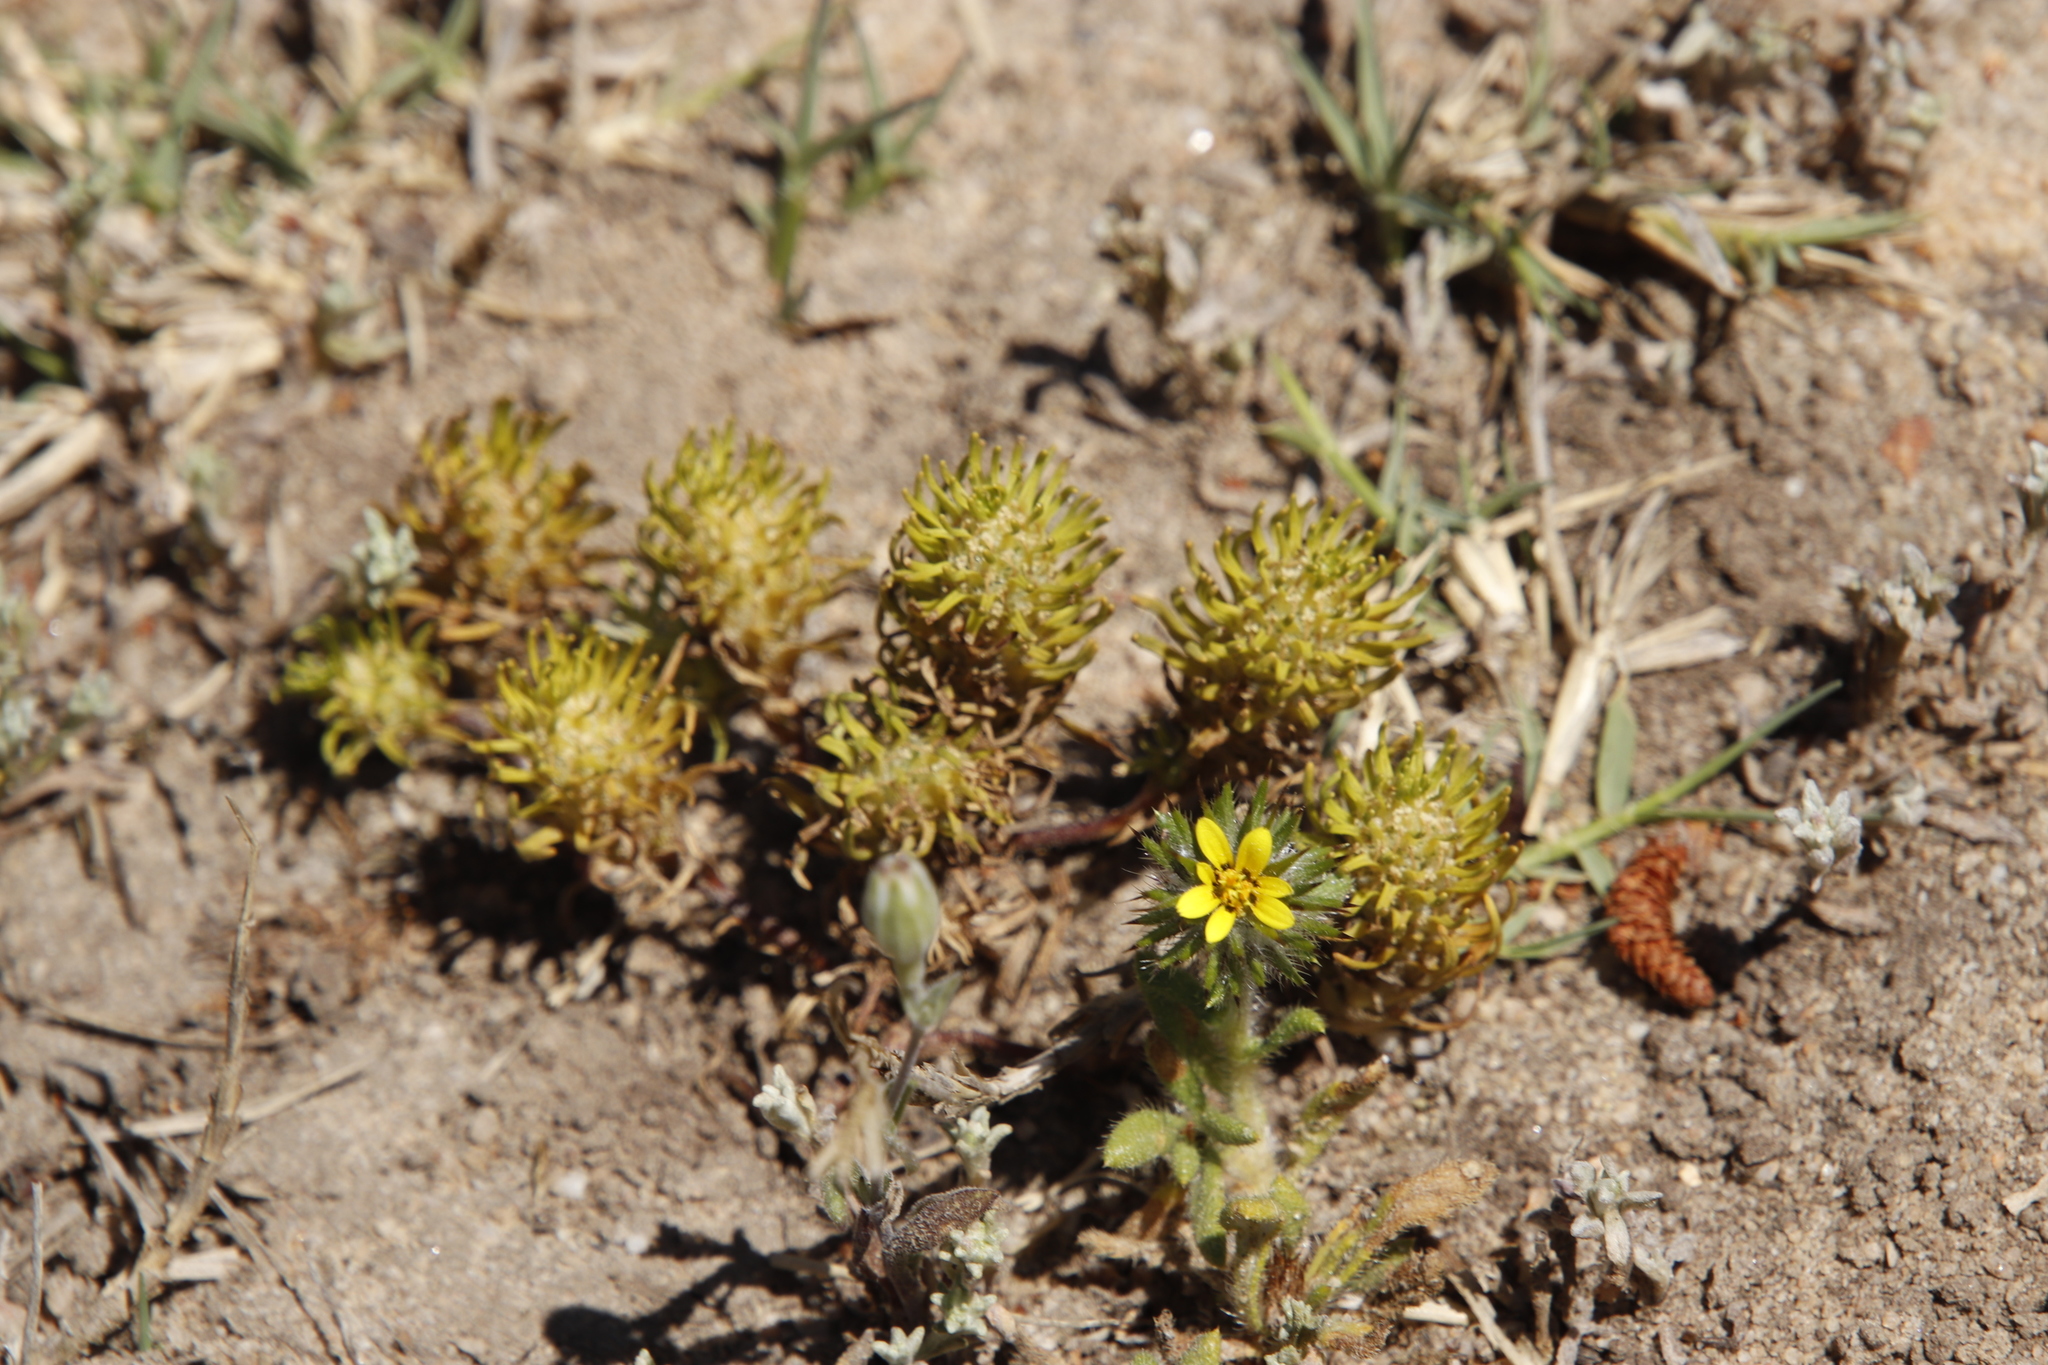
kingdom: Plantae
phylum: Tracheophyta
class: Magnoliopsida
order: Asterales
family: Asteraceae
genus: Gorteria
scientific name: Gorteria personata
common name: Gorteria
